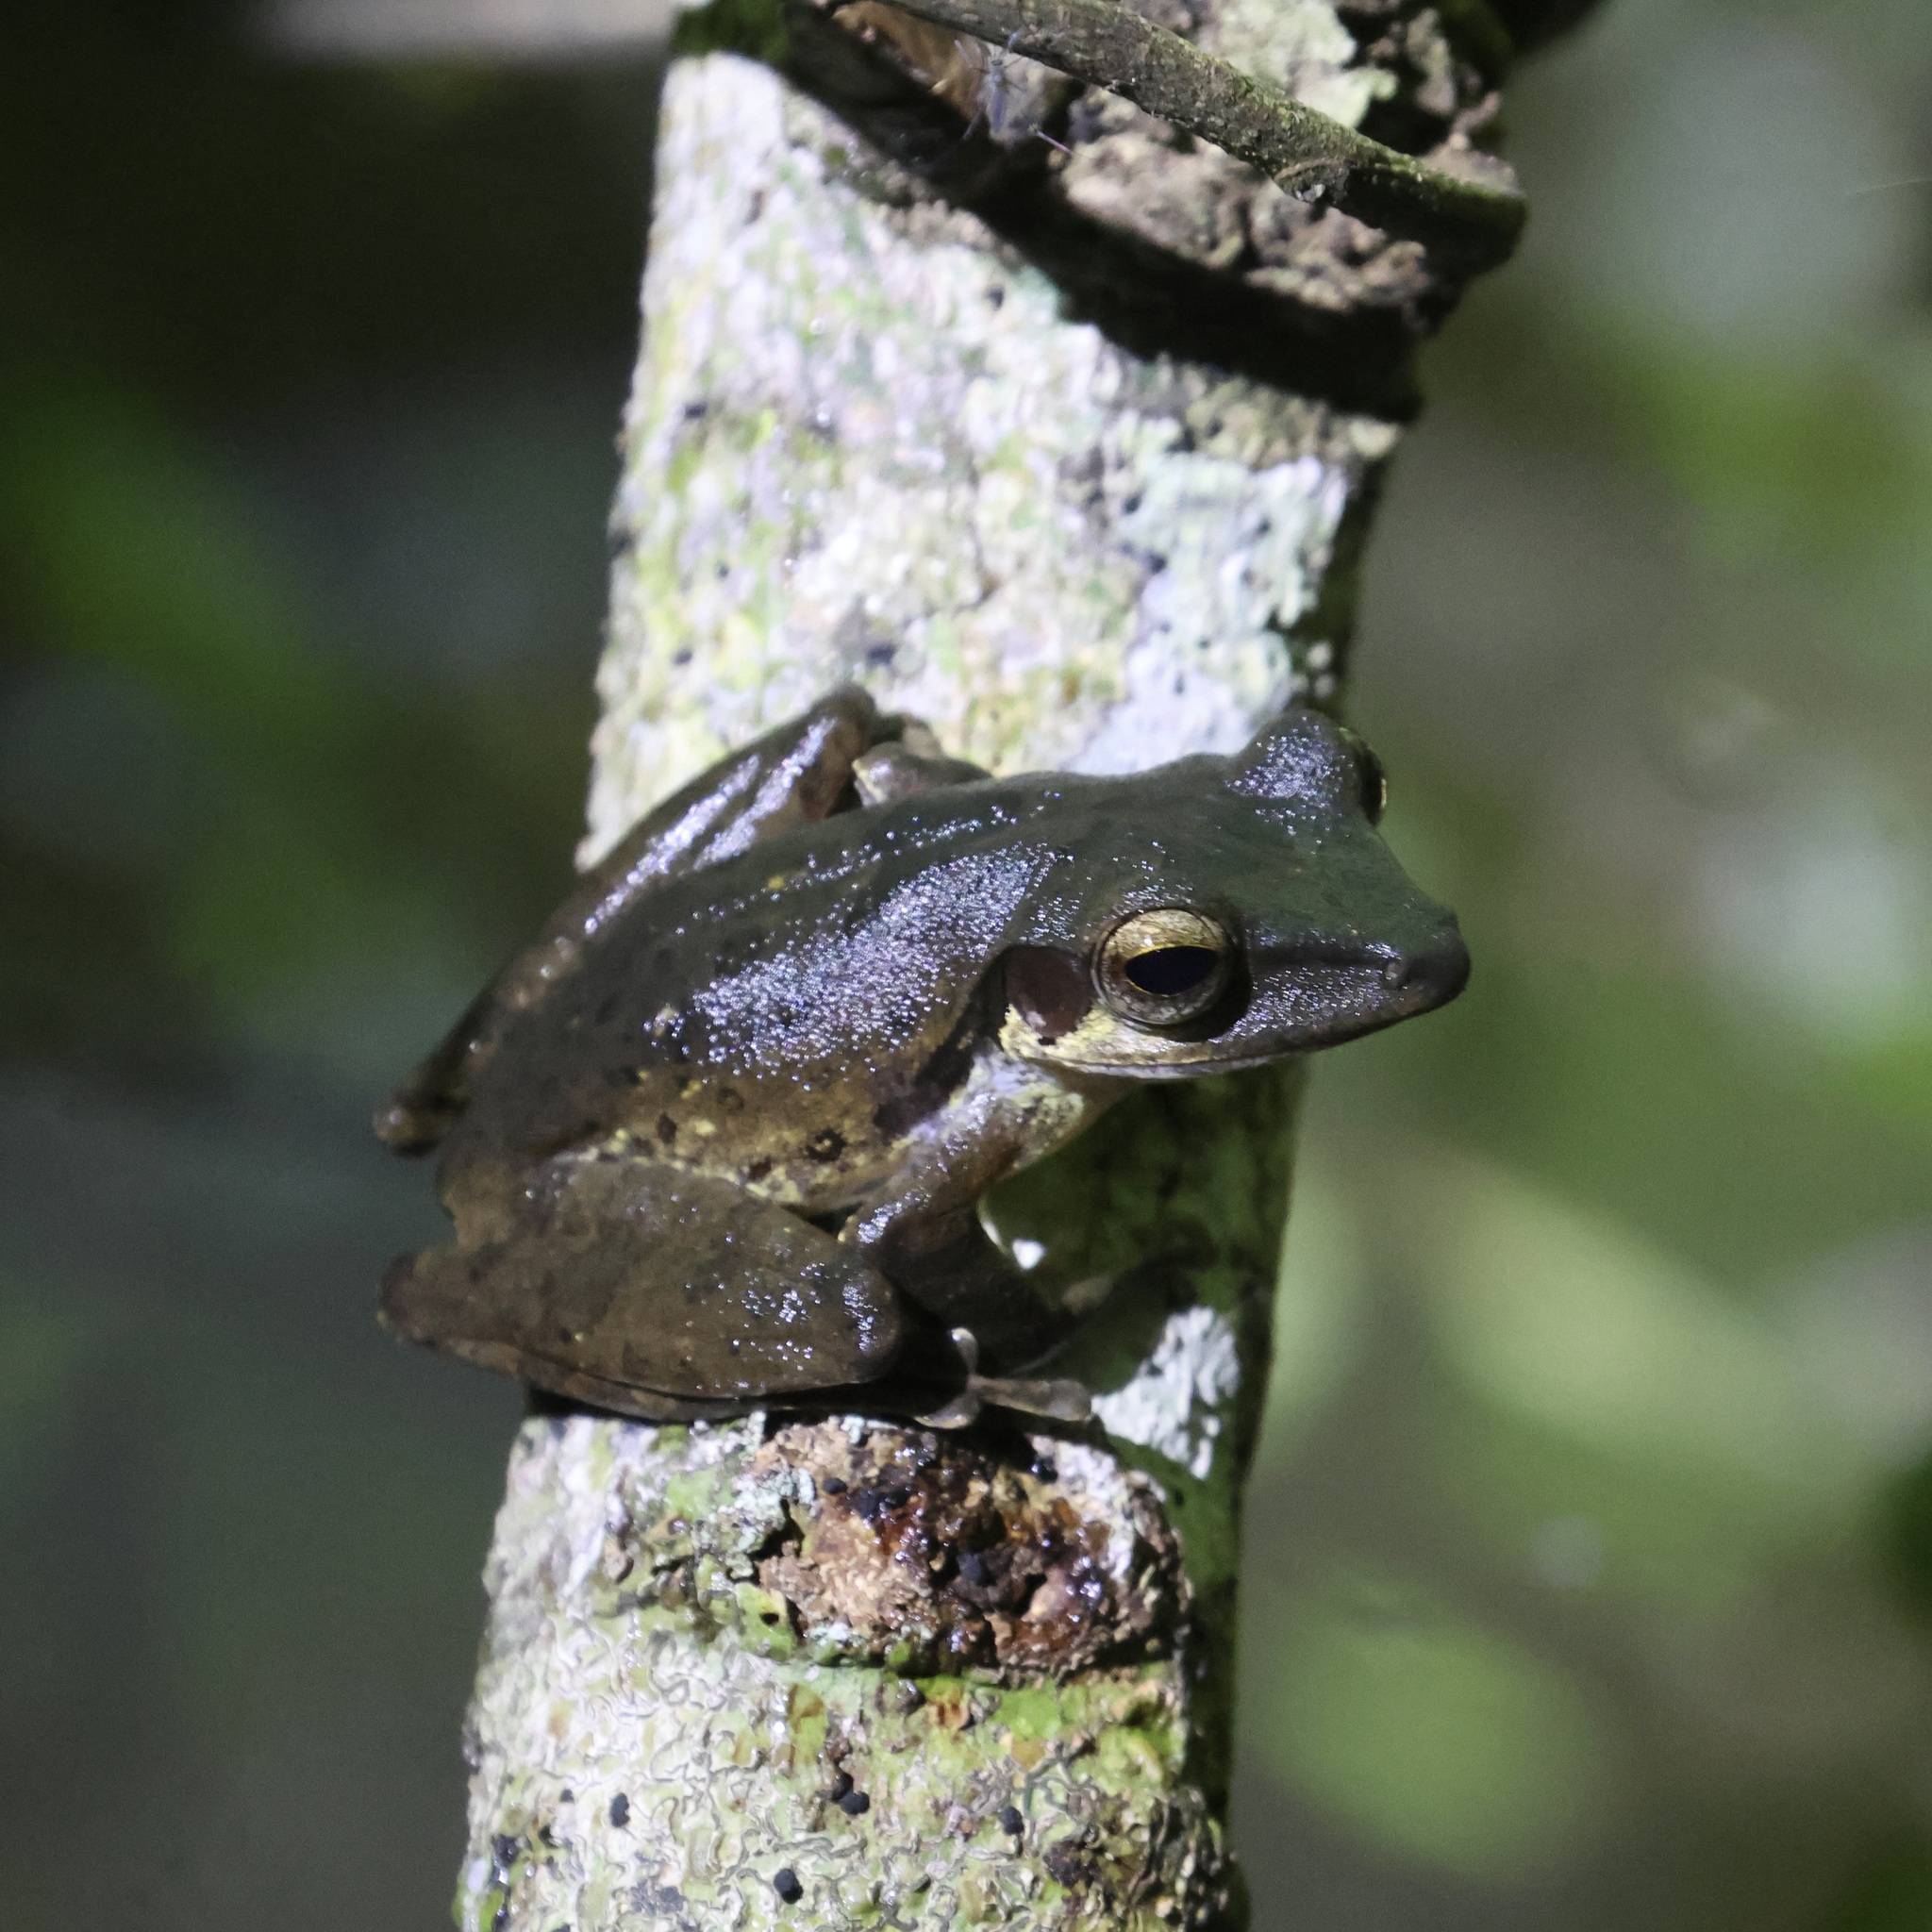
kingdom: Animalia
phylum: Chordata
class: Amphibia
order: Anura
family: Rhacophoridae
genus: Polypedates
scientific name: Polypedates macrotis
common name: Dark-eared tree frog
